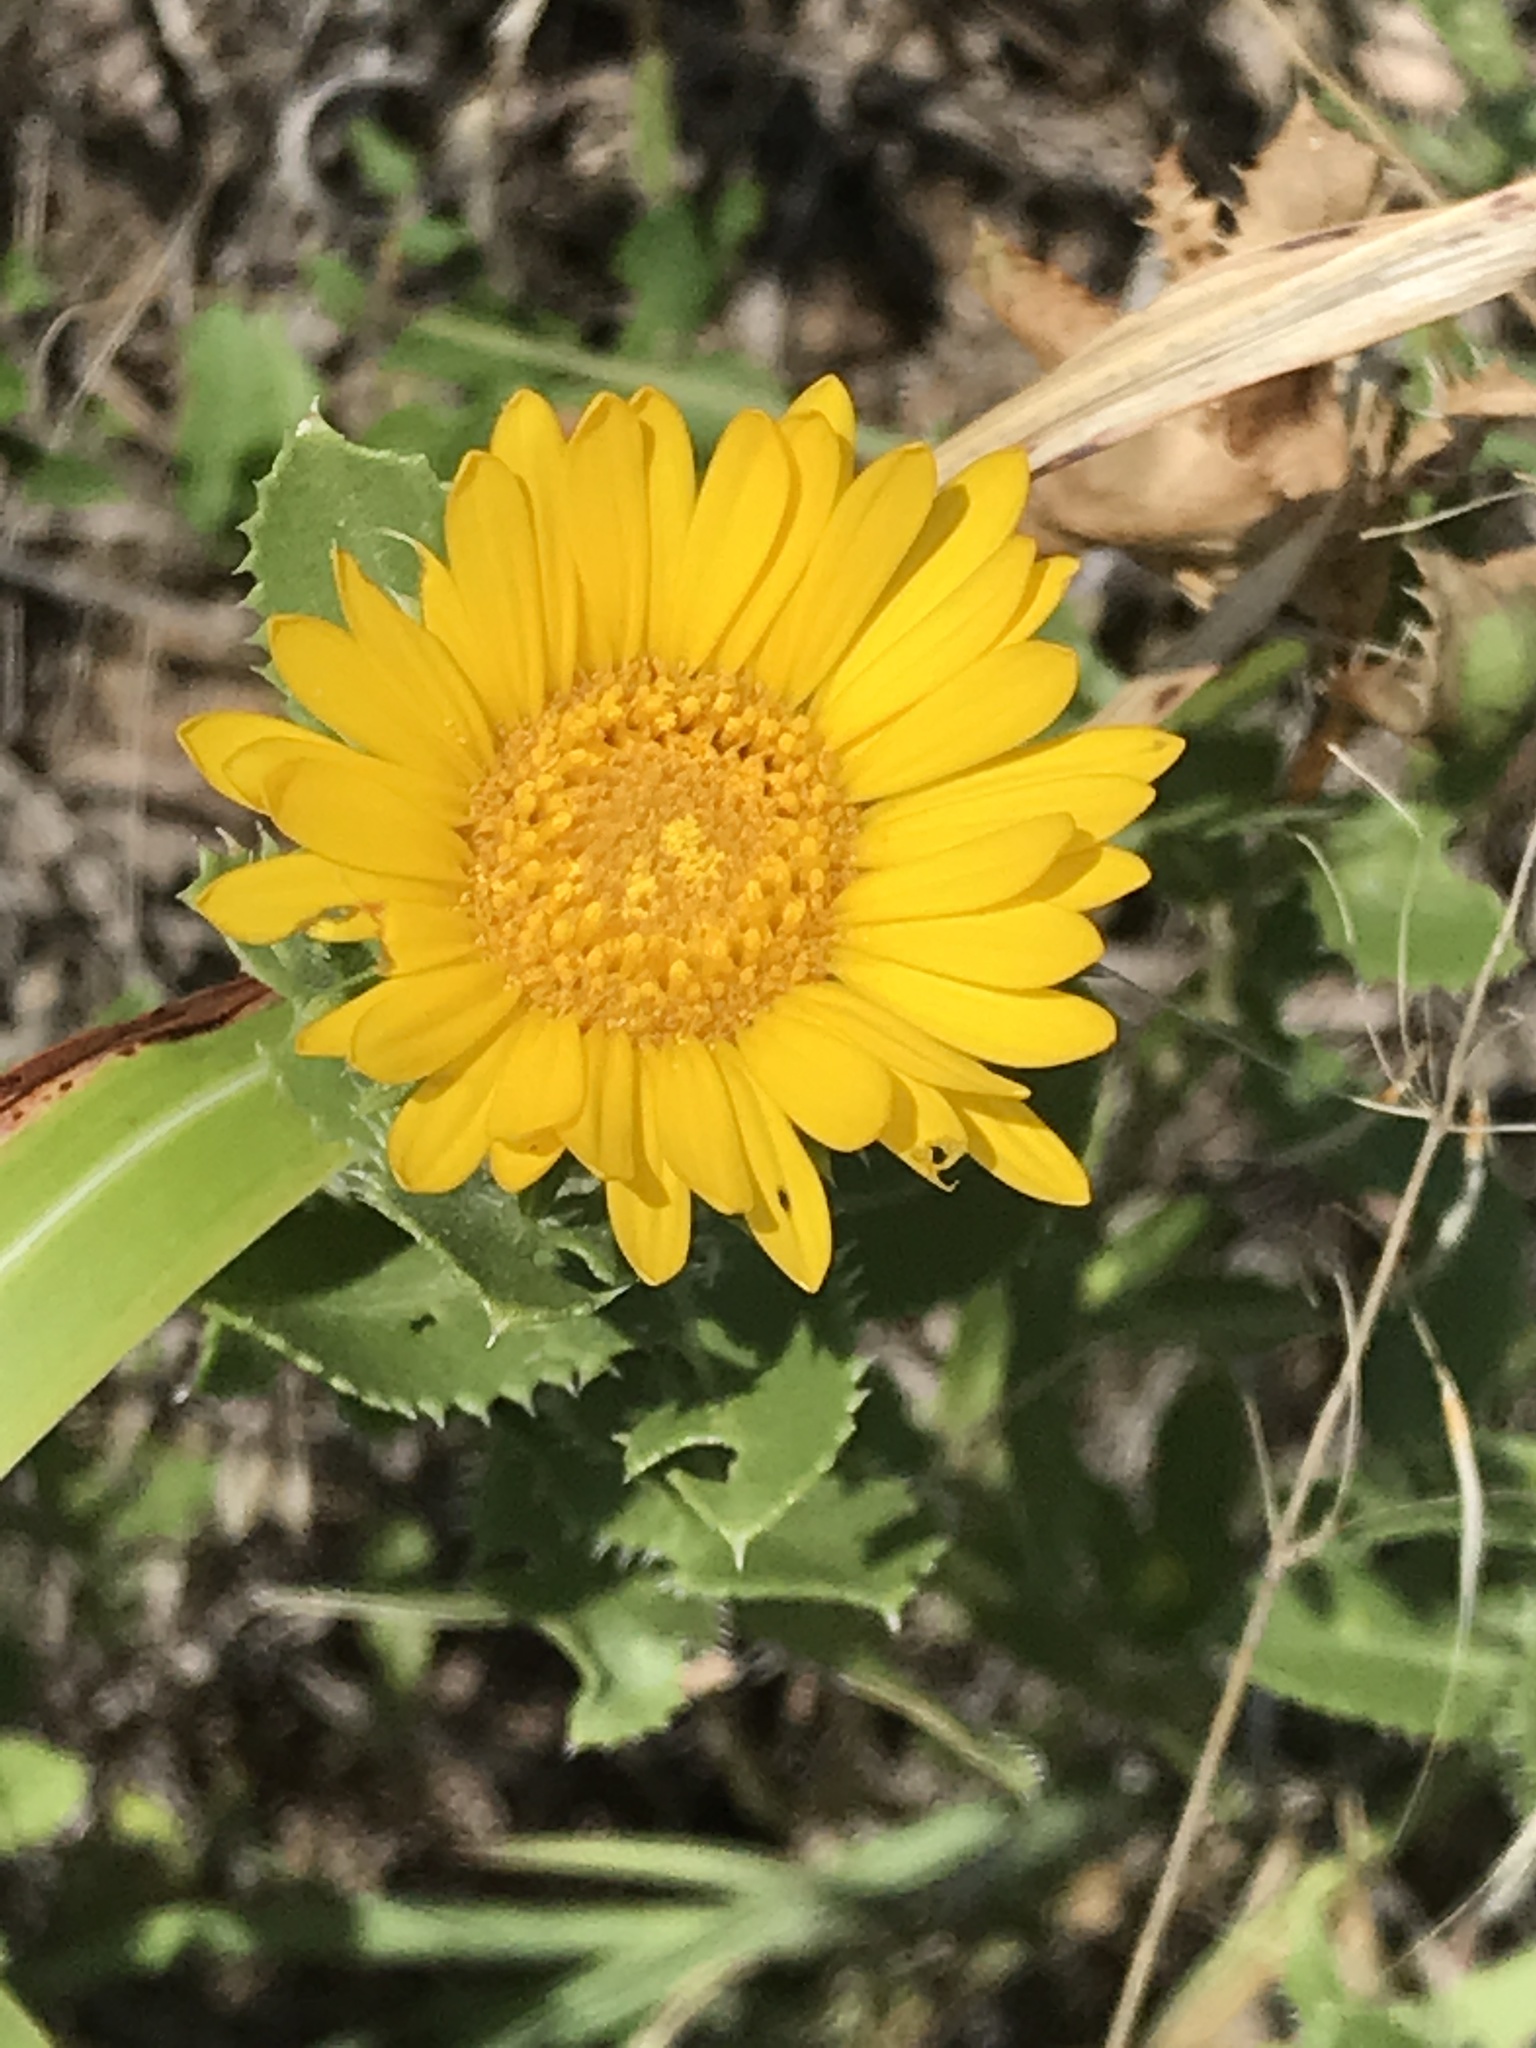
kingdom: Plantae
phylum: Tracheophyta
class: Magnoliopsida
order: Asterales
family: Asteraceae
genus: Grindelia
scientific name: Grindelia ciliata
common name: Goldenweed
